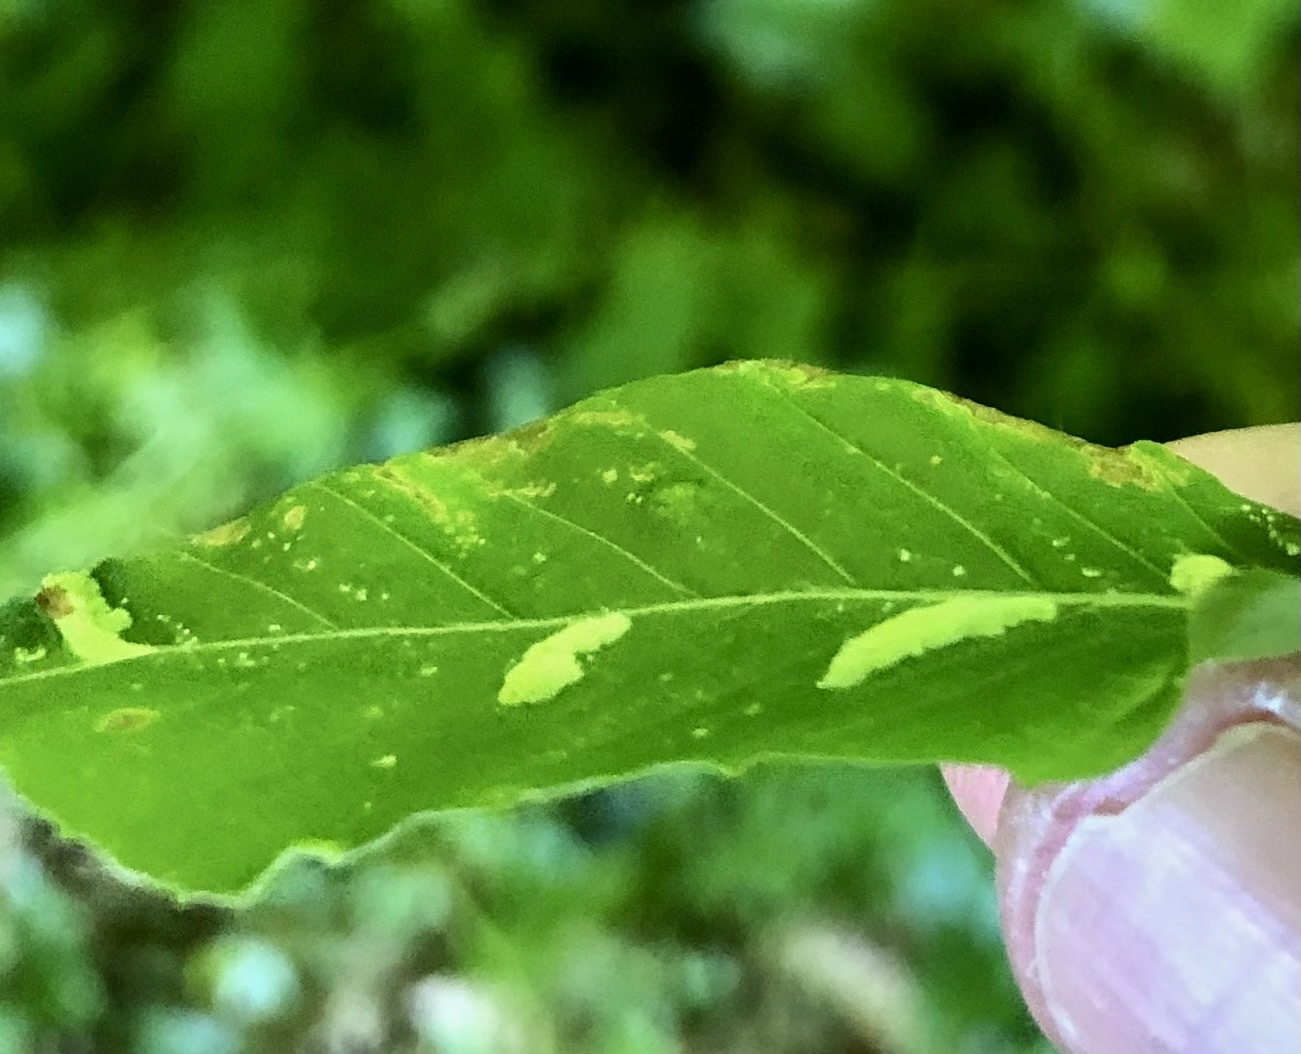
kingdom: Animalia
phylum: Arthropoda
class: Arachnida
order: Trombidiformes
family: Eriophyidae
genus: Acalitus
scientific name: Acalitus
